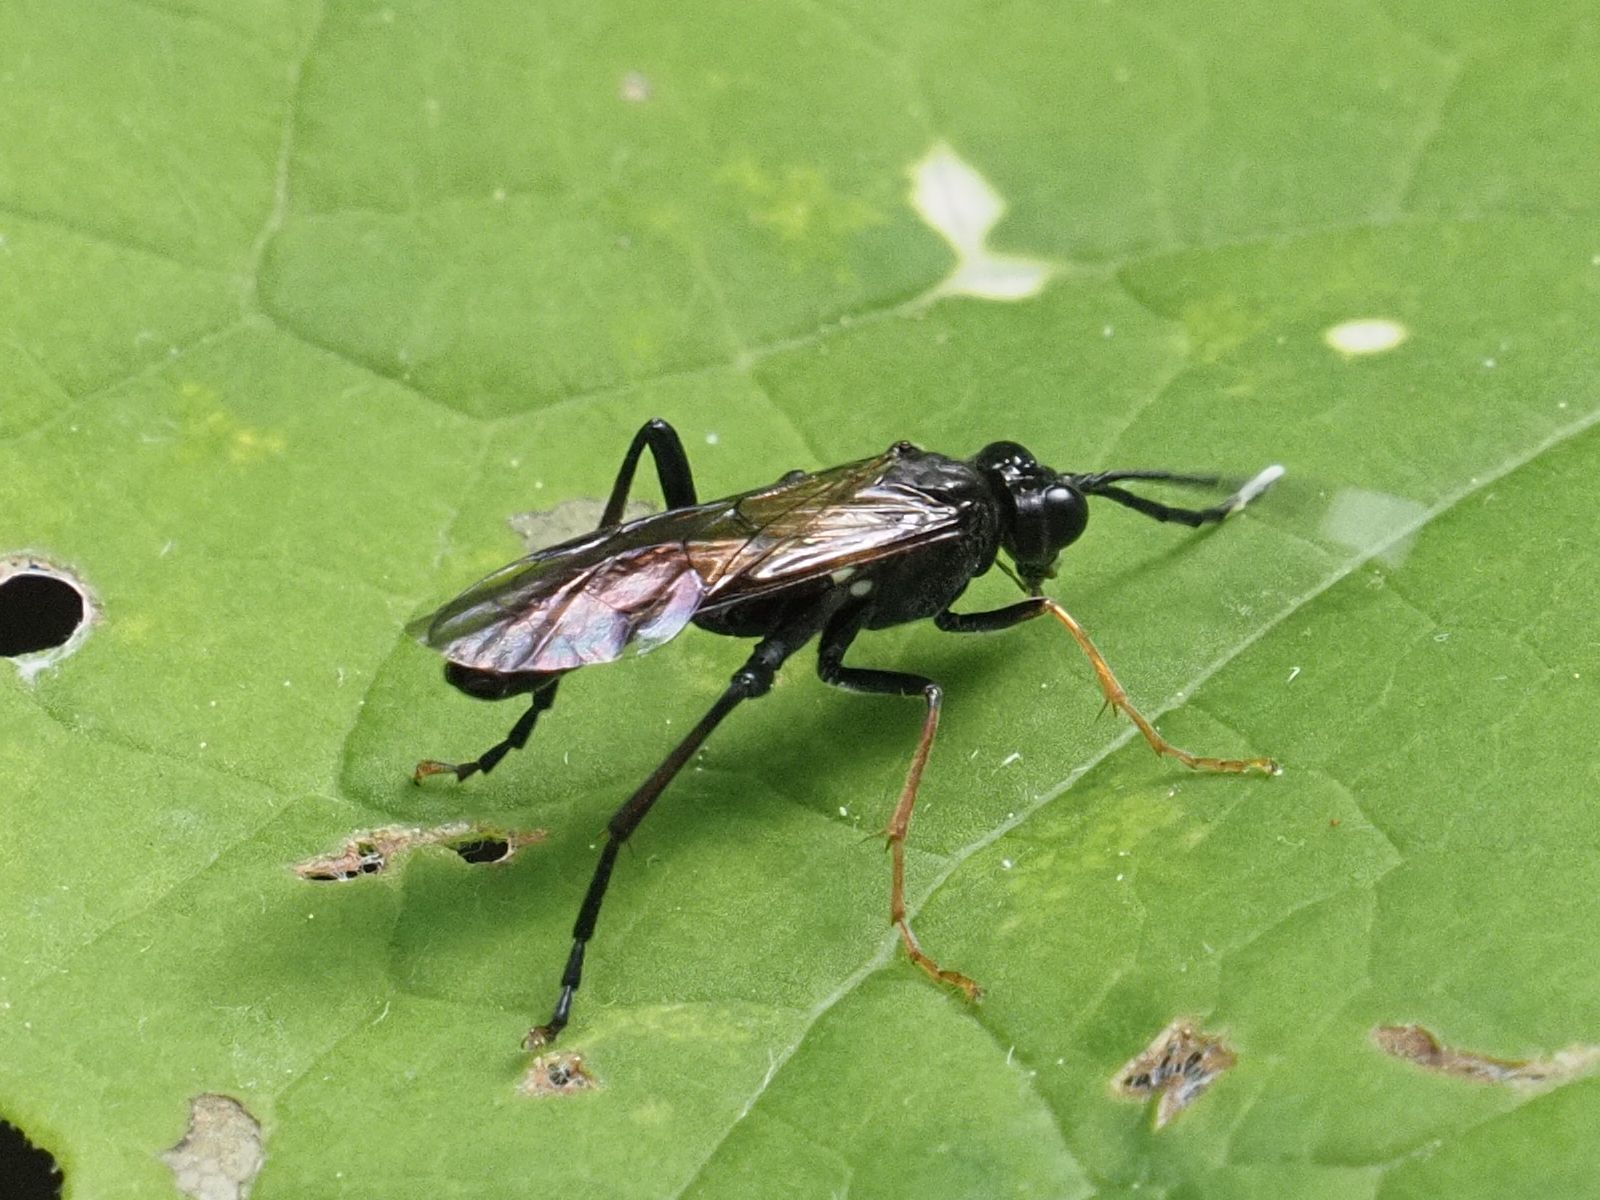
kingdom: Animalia
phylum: Arthropoda
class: Insecta
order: Hymenoptera
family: Tenthredinidae
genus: Tenthredo
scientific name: Tenthredo bipunctula
